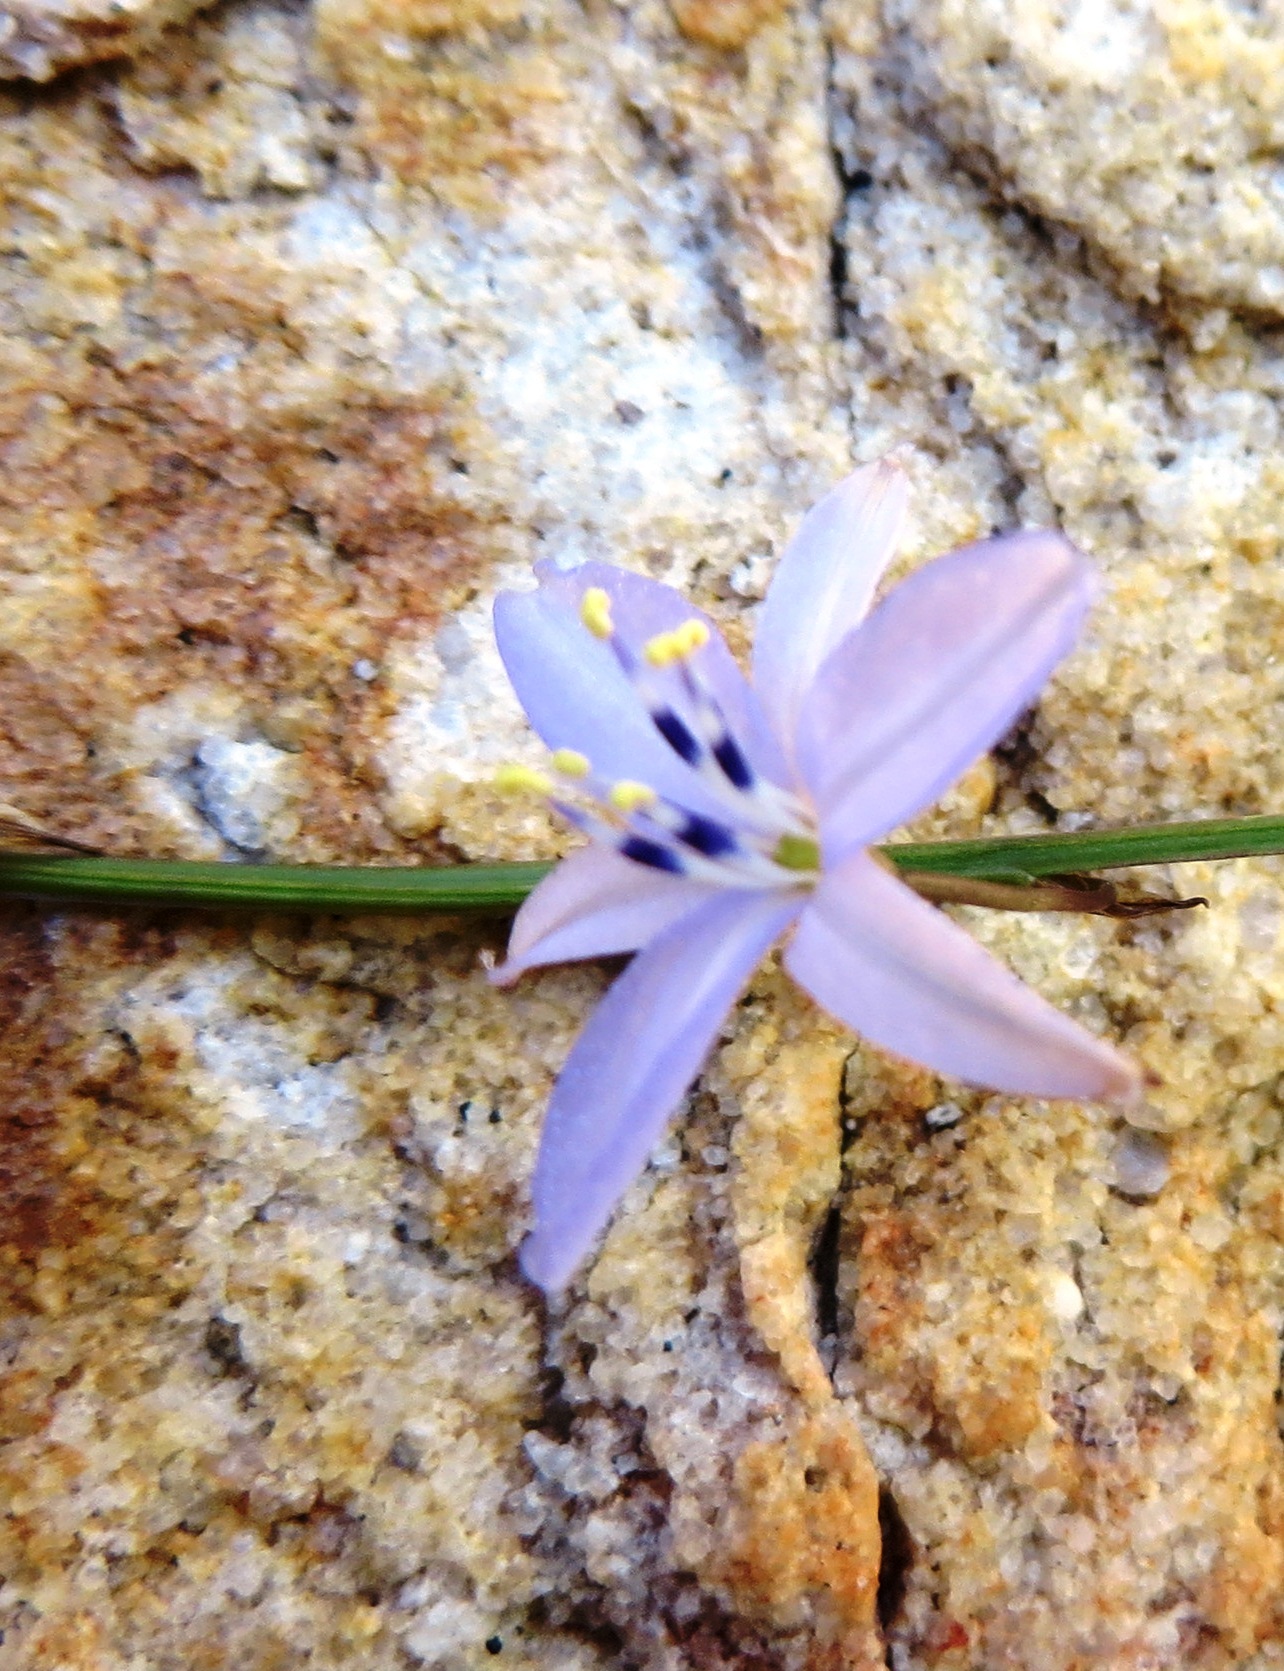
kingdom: Plantae
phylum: Tracheophyta
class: Liliopsida
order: Asparagales
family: Asphodelaceae
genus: Caesia
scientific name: Caesia contorta
